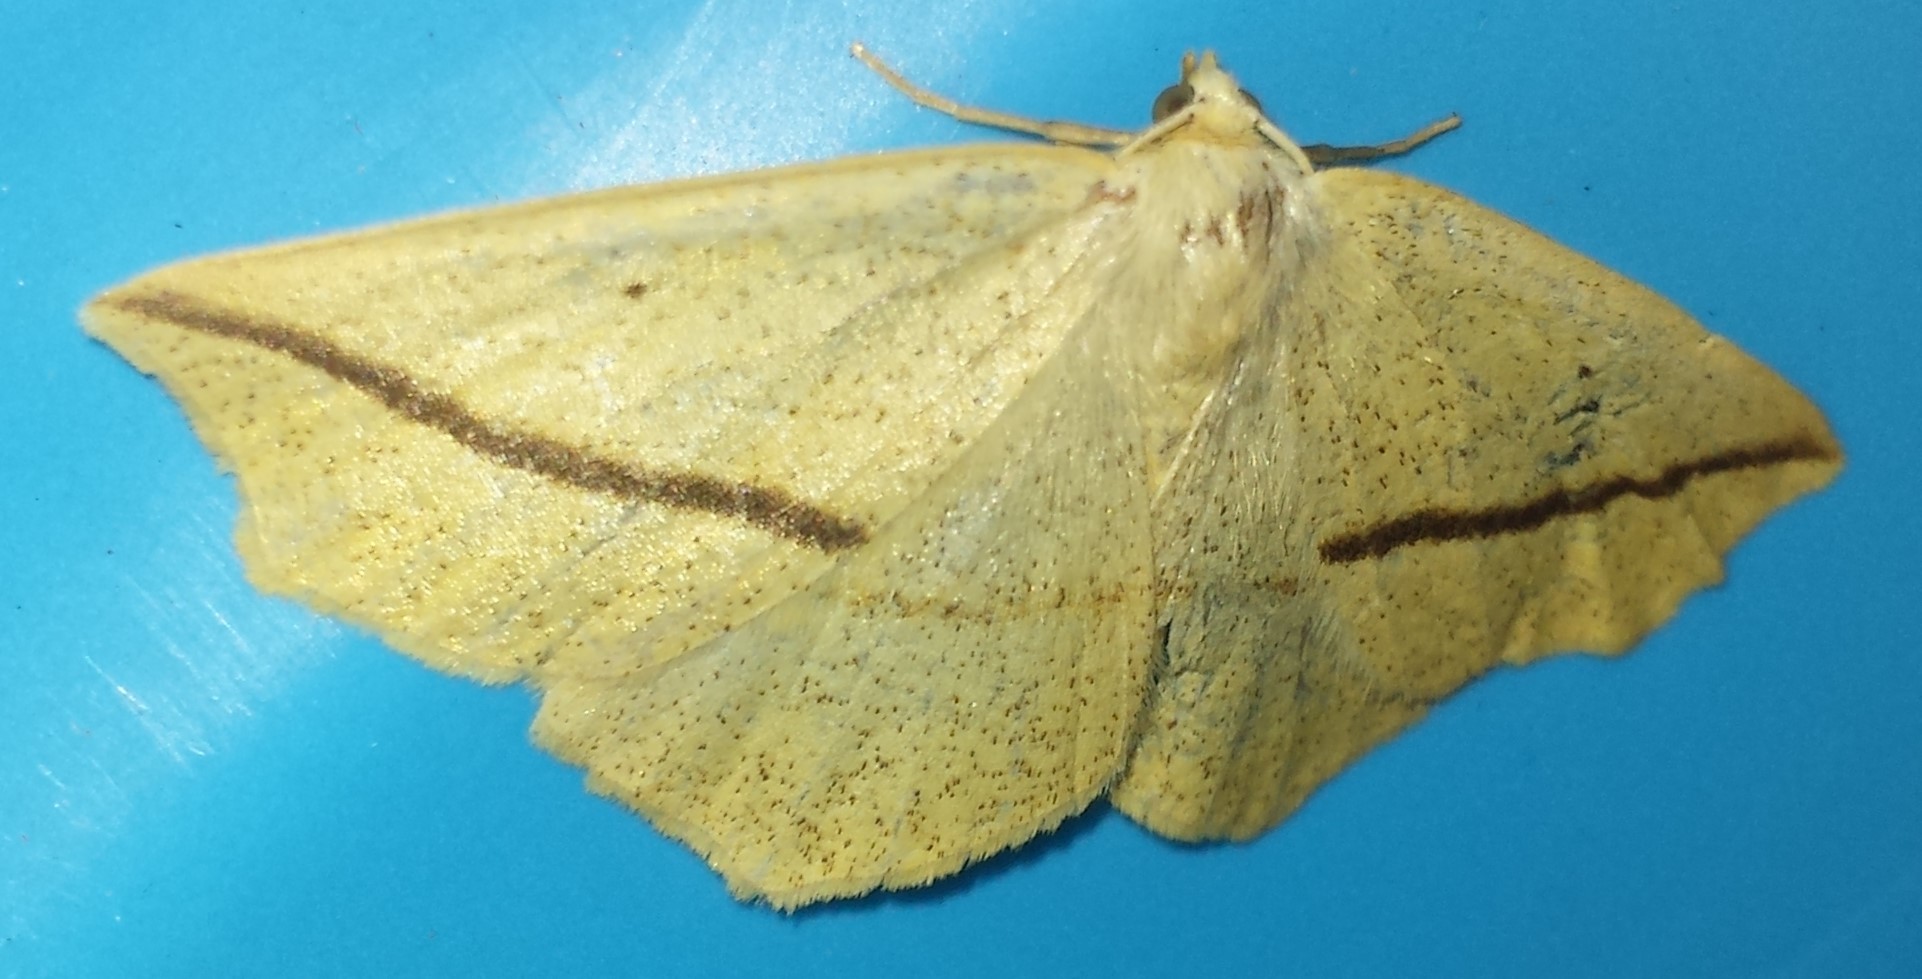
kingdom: Animalia
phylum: Arthropoda
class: Insecta
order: Lepidoptera
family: Geometridae
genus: Tetracis
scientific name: Tetracis crocallata
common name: Yellow slant-line
